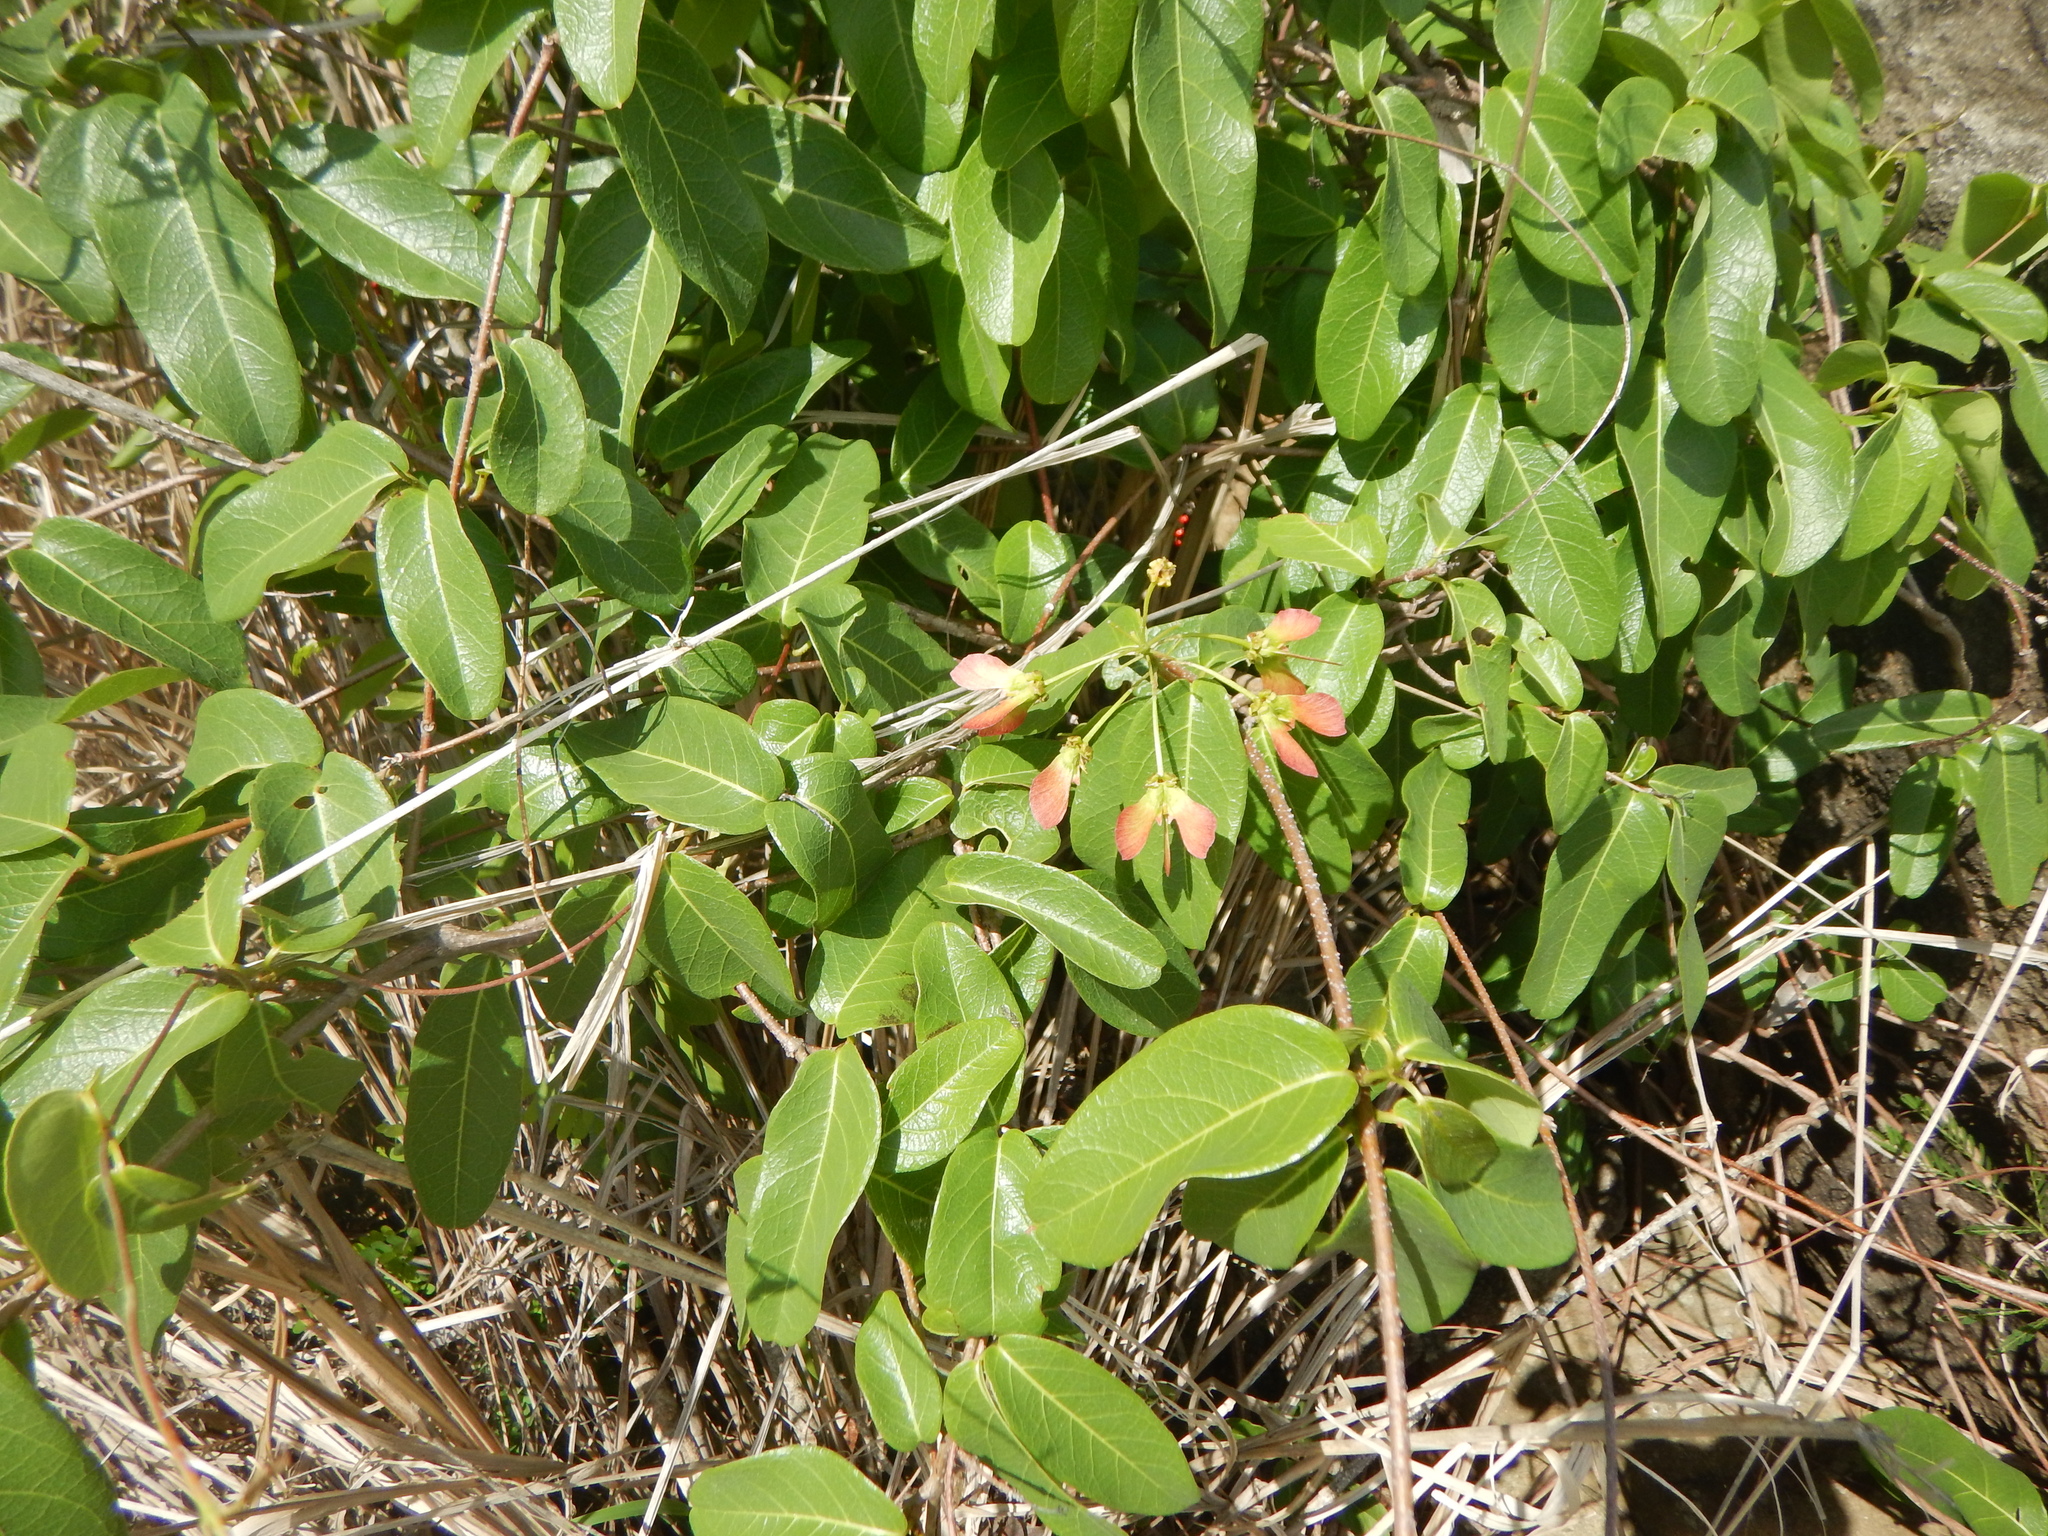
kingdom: Plantae
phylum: Tracheophyta
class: Magnoliopsida
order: Malpighiales
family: Malpighiaceae
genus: Stigmaphyllon
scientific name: Stigmaphyllon emarginatum
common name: Monarch amazonvine
